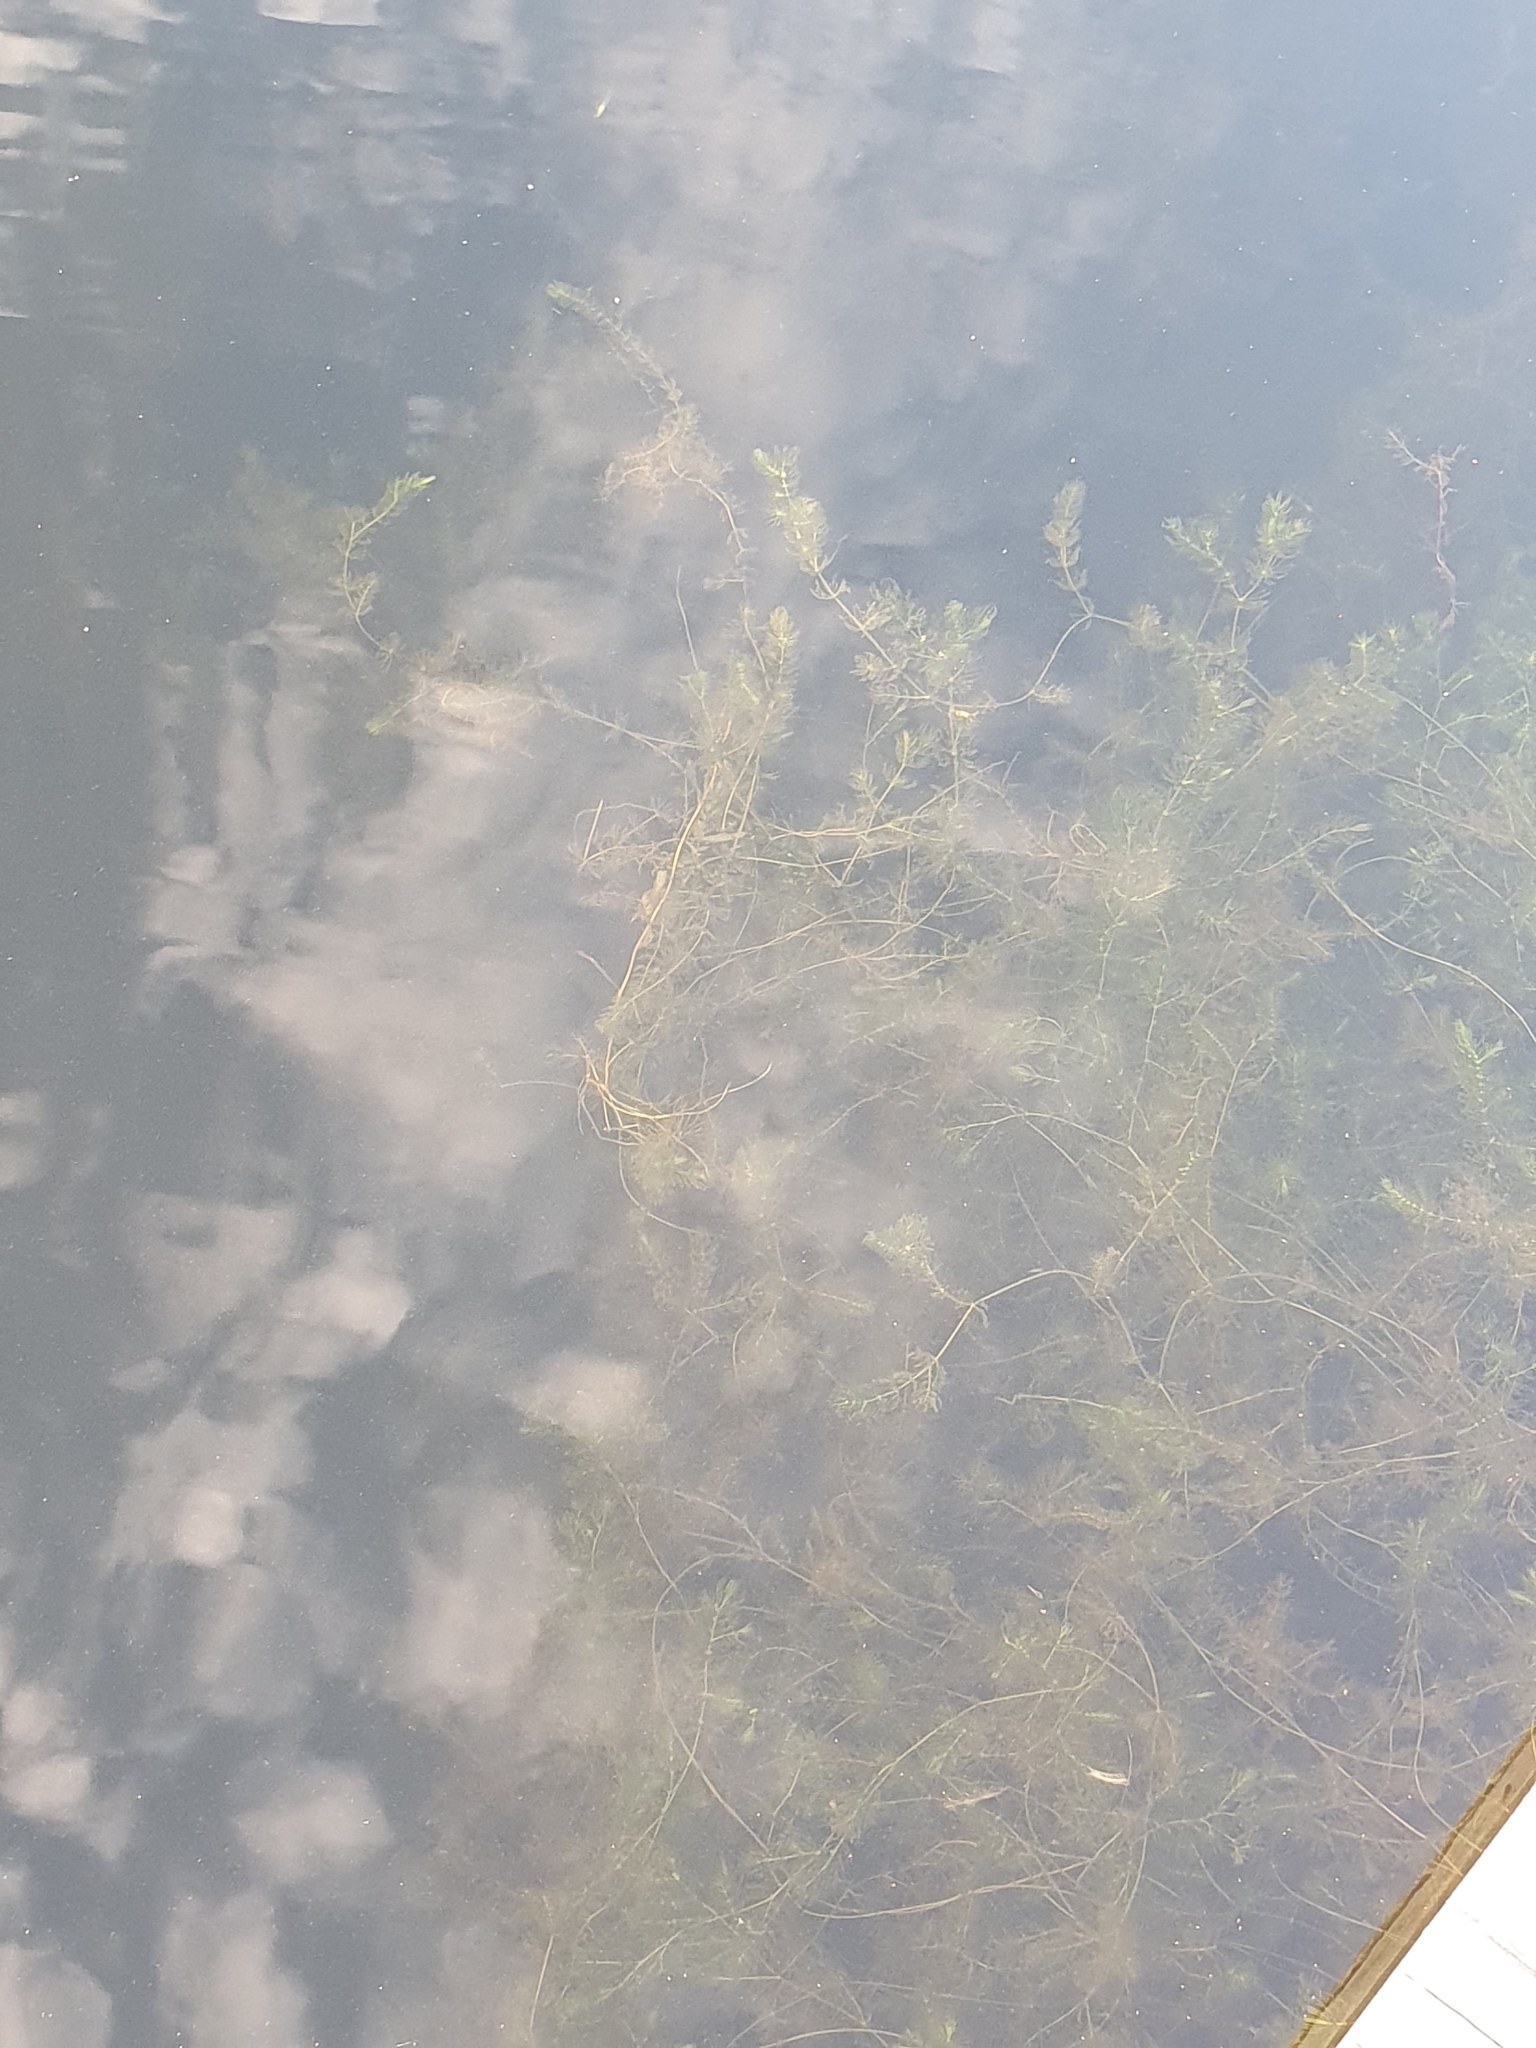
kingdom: Plantae
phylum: Tracheophyta
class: Magnoliopsida
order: Ceratophyllales
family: Ceratophyllaceae
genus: Ceratophyllum
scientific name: Ceratophyllum demersum
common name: Rigid hornwort
